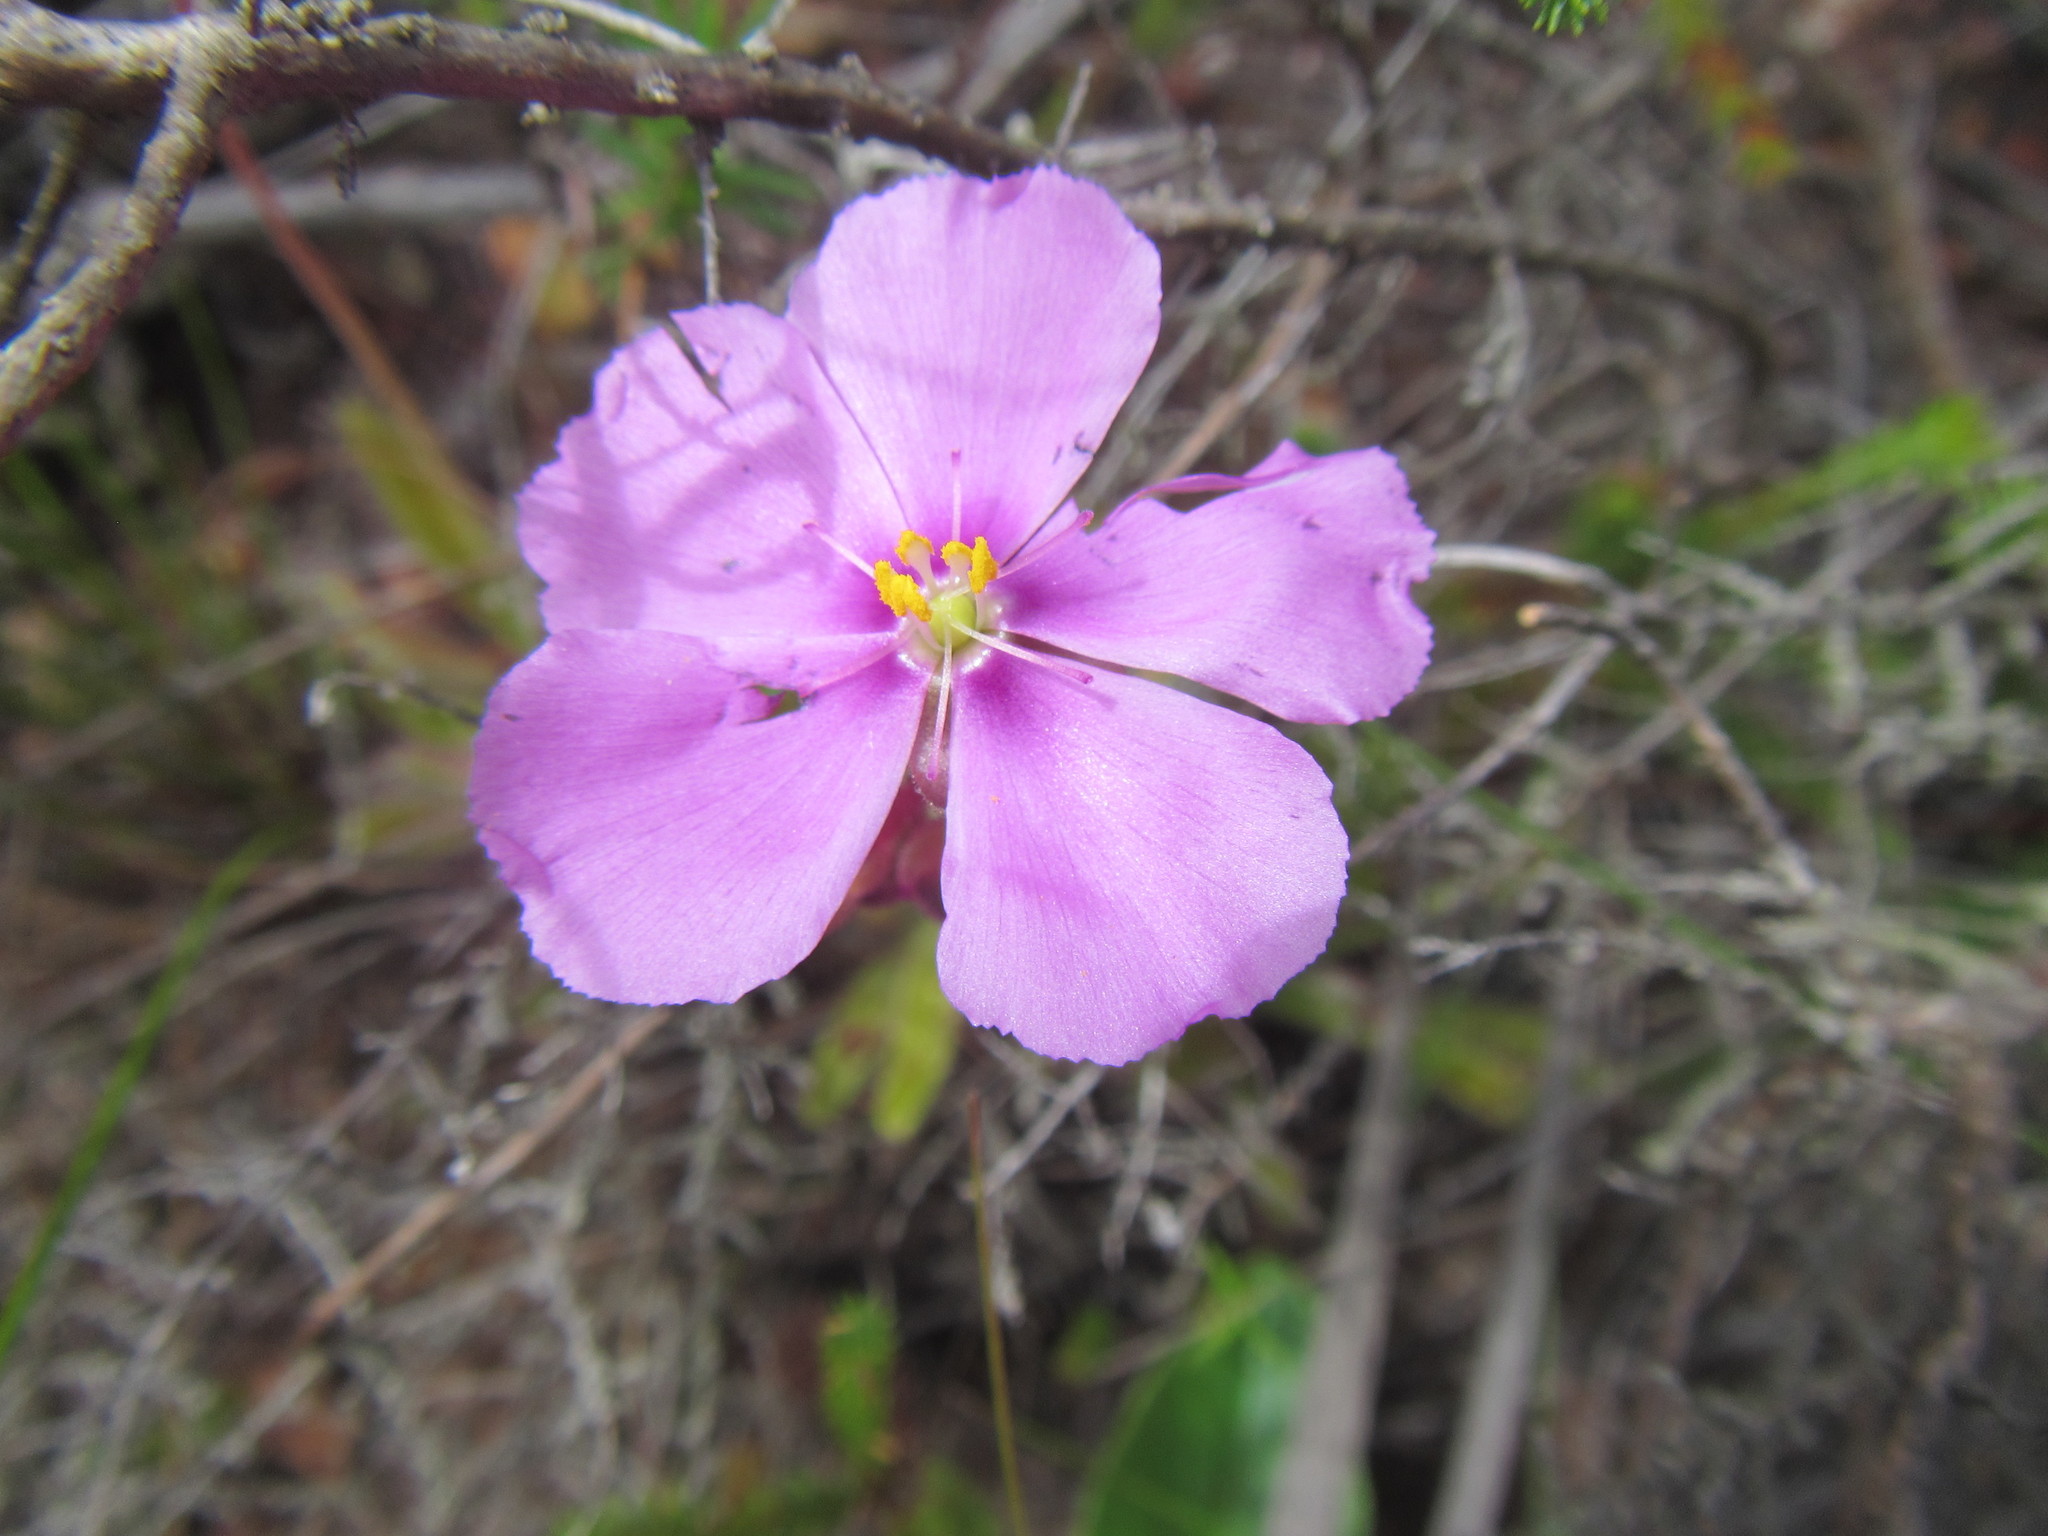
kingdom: Plantae
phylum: Tracheophyta
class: Magnoliopsida
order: Caryophyllales
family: Droseraceae
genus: Drosera
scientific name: Drosera hilaris
